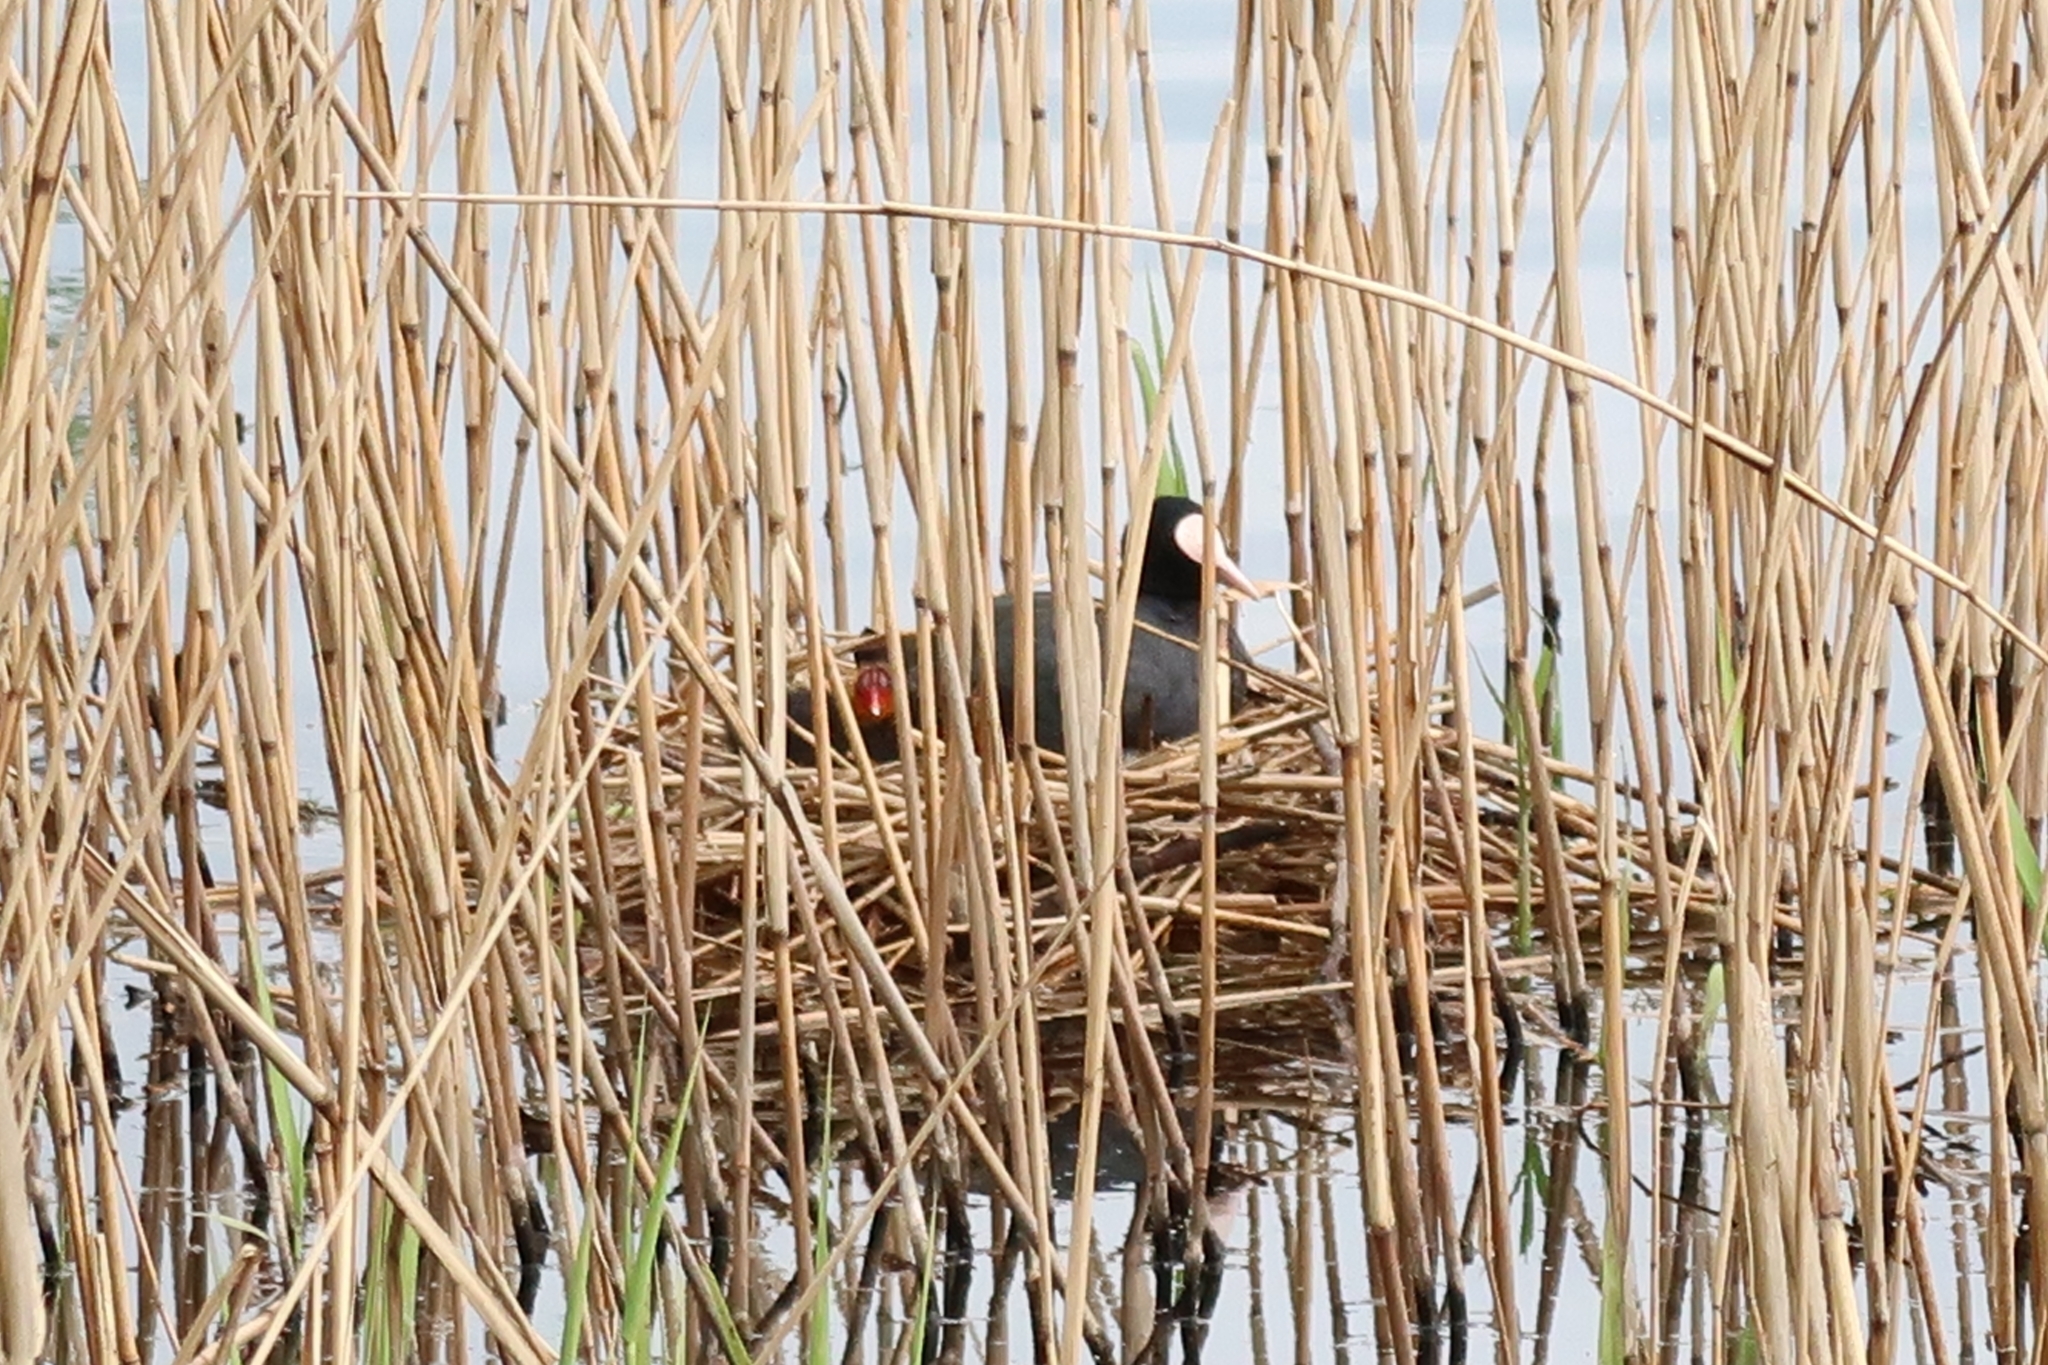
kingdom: Animalia
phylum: Chordata
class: Aves
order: Gruiformes
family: Rallidae
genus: Fulica
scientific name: Fulica atra
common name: Eurasian coot
